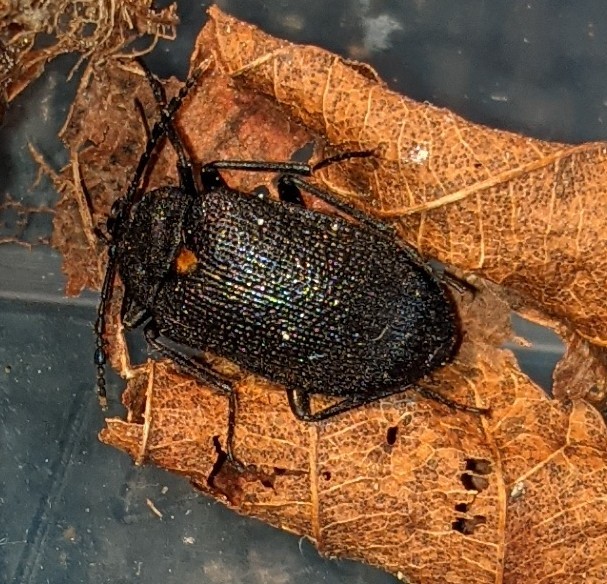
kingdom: Animalia
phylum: Arthropoda
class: Insecta
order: Coleoptera
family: Tetratomidae
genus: Penthe
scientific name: Penthe obliquata
